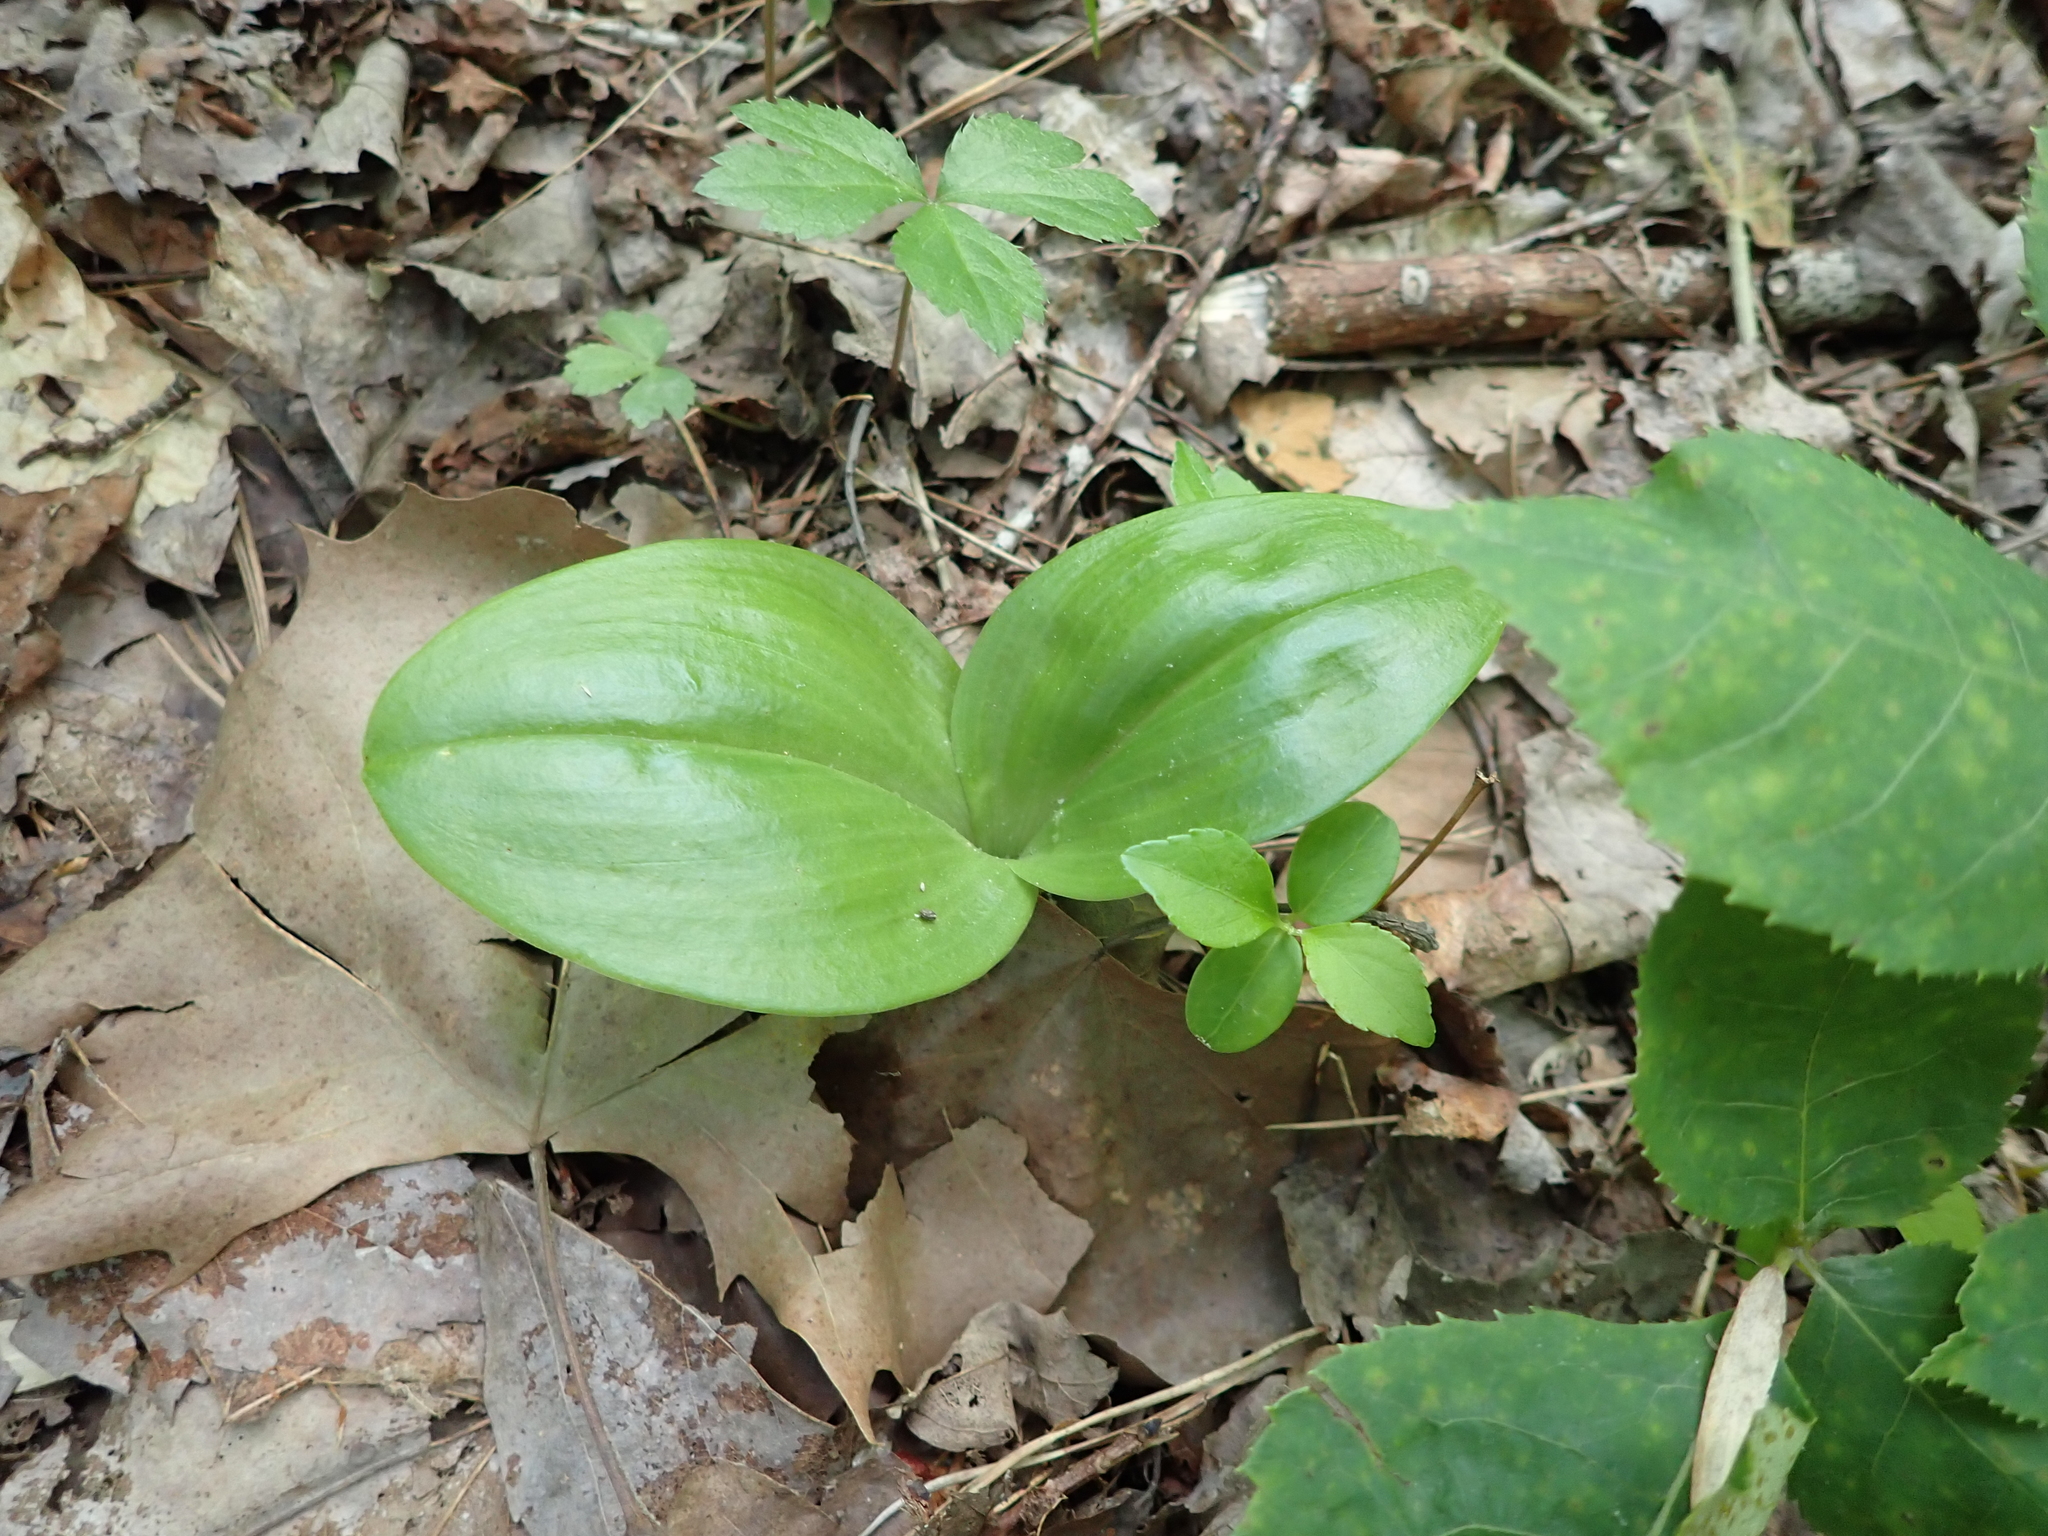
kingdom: Plantae
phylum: Tracheophyta
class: Liliopsida
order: Asparagales
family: Orchidaceae
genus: Liparis
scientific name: Liparis liliifolia
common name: Brown wide-lip orchid
